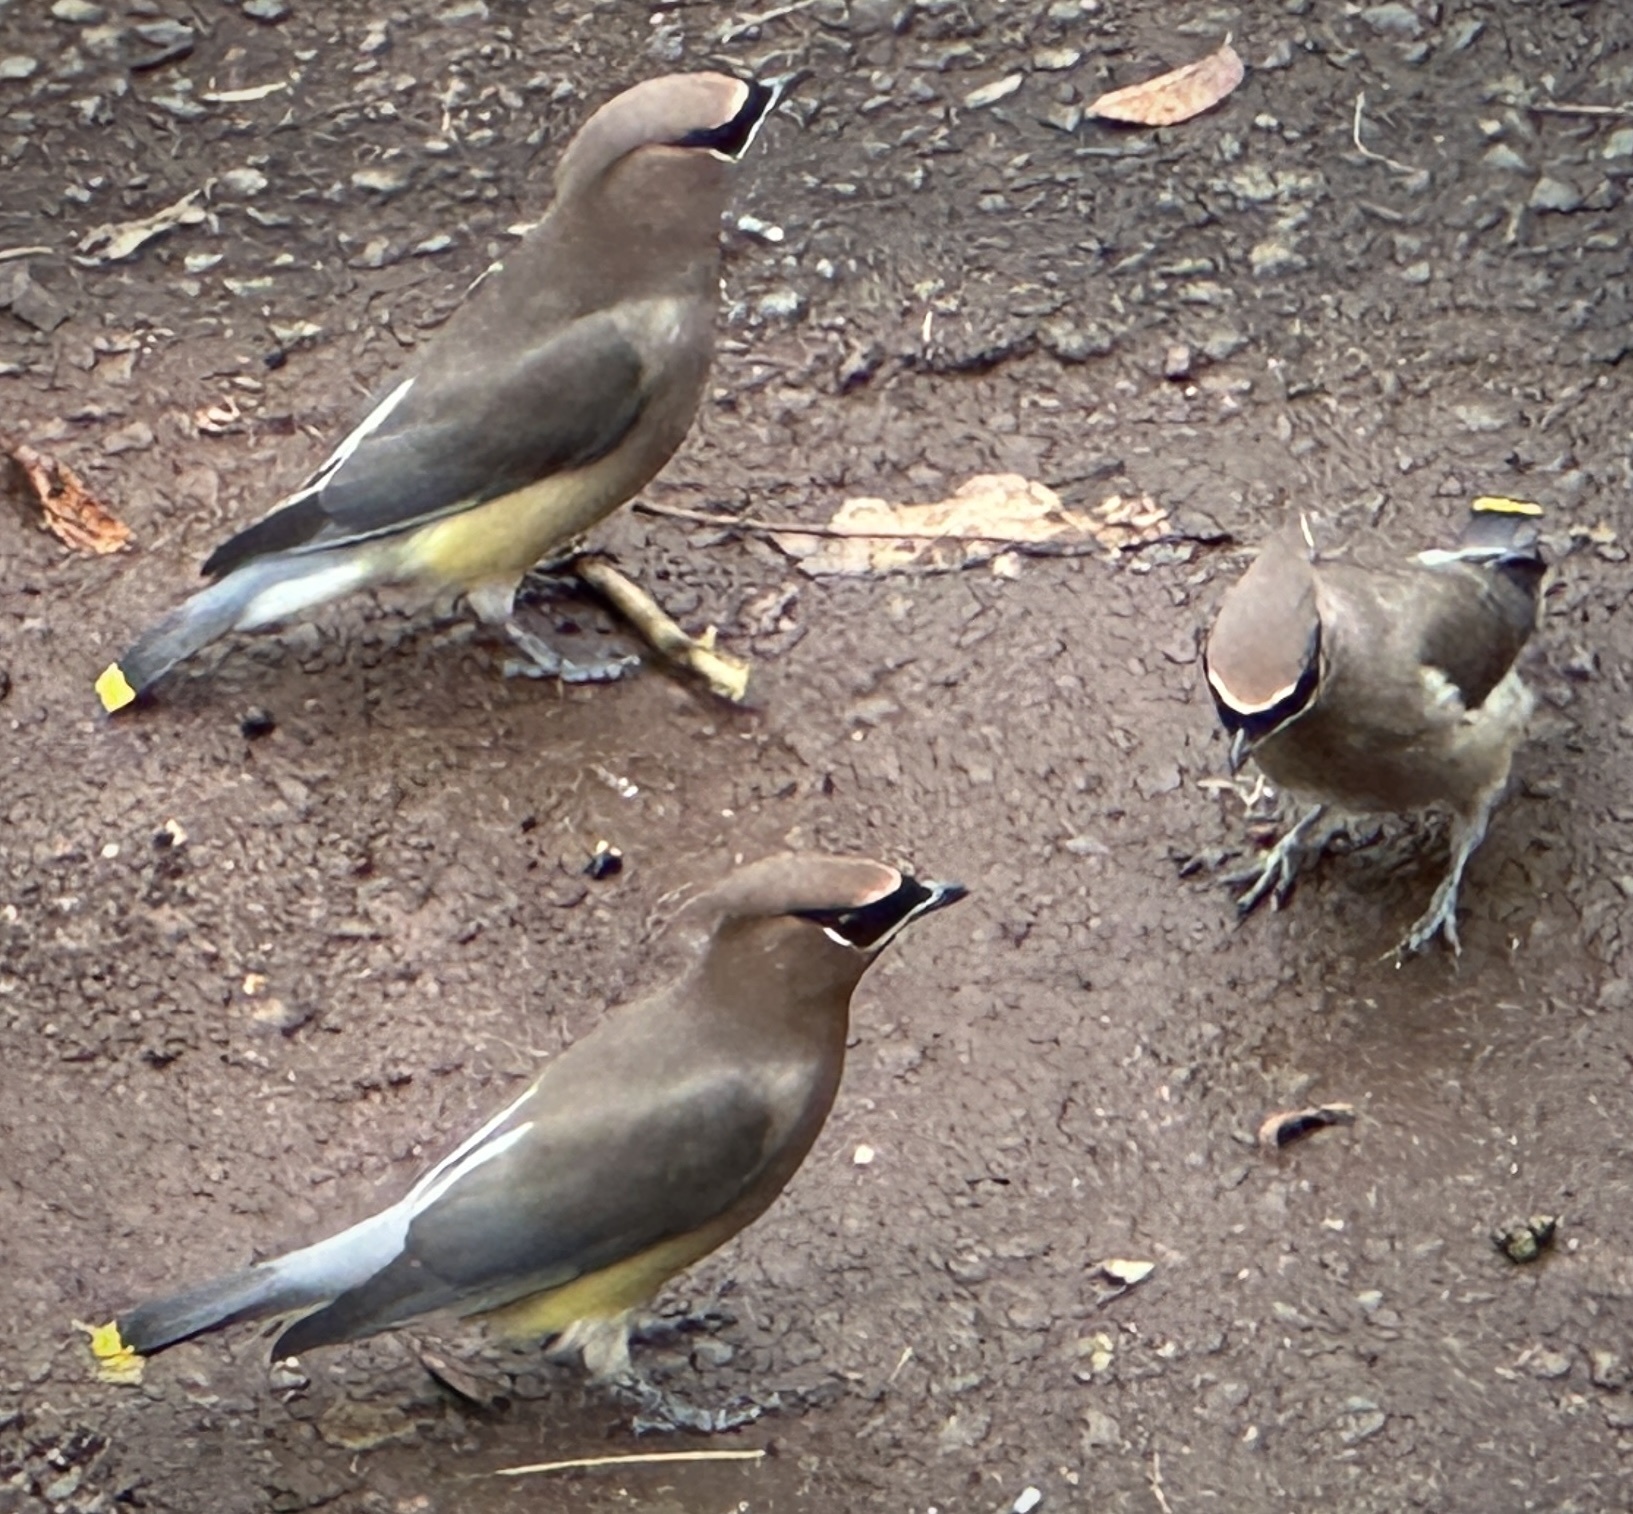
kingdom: Animalia
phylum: Chordata
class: Aves
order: Passeriformes
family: Bombycillidae
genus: Bombycilla
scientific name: Bombycilla cedrorum
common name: Cedar waxwing
